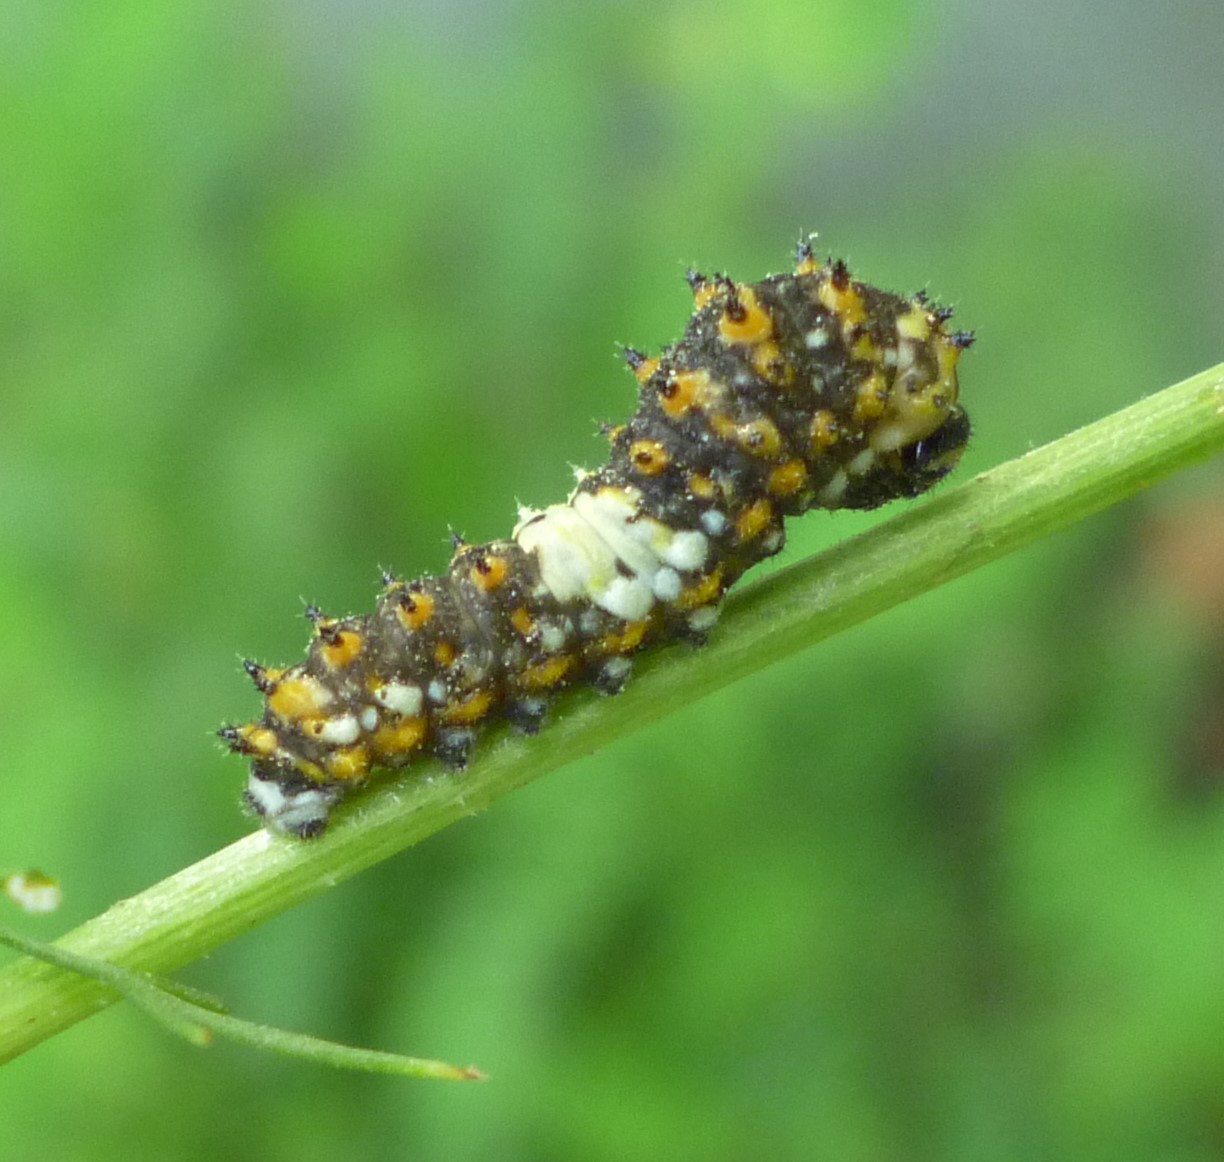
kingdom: Animalia
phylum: Arthropoda
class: Insecta
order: Lepidoptera
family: Papilionidae
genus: Papilio
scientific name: Papilio polyxenes
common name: Black swallowtail
